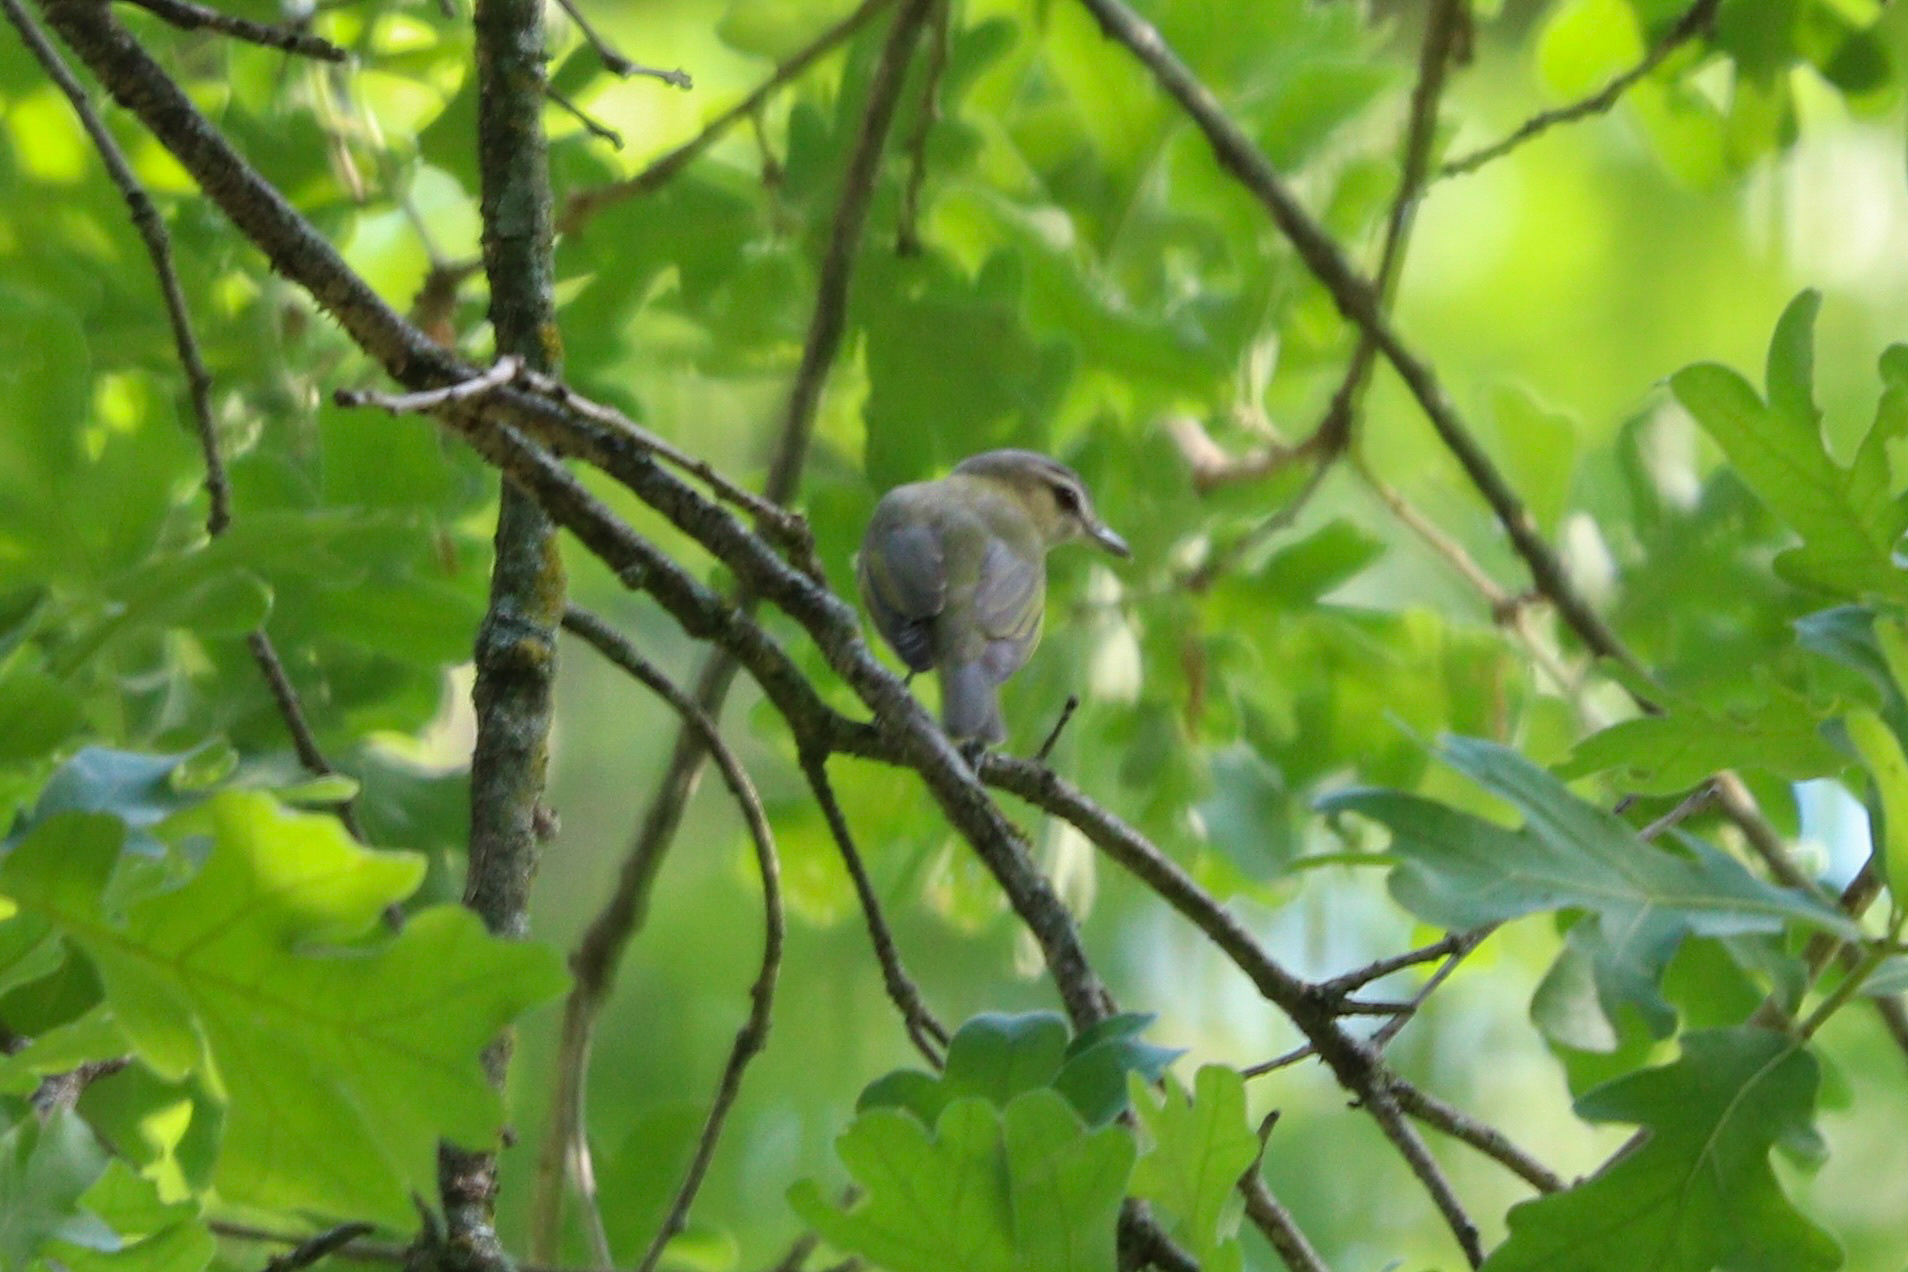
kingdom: Animalia
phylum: Chordata
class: Aves
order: Passeriformes
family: Vireonidae
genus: Vireo
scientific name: Vireo olivaceus
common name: Red-eyed vireo
